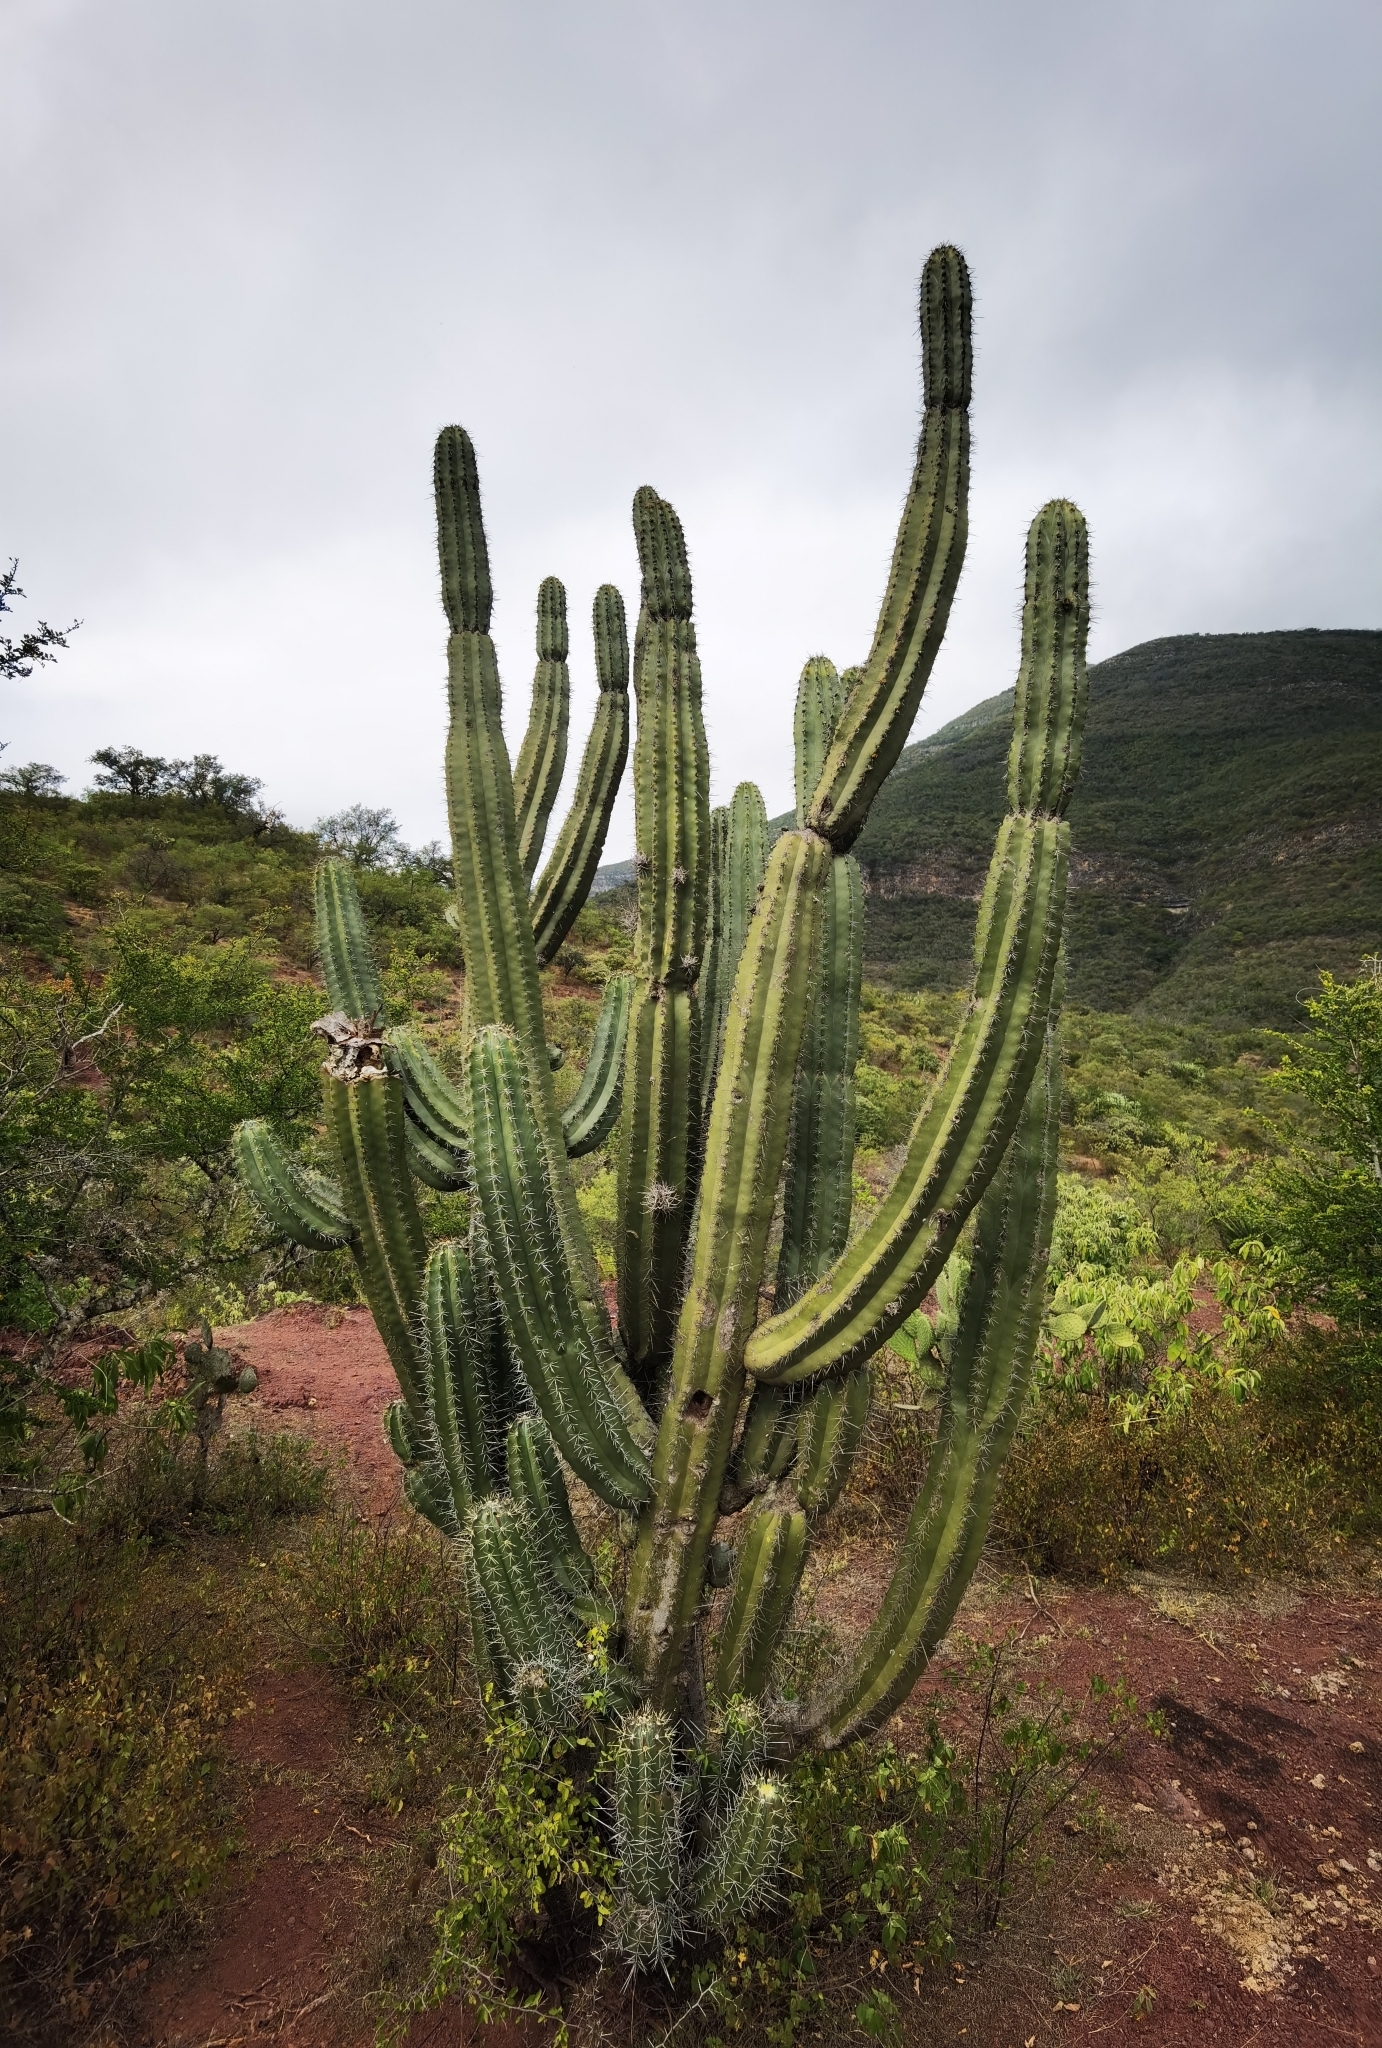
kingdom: Plantae
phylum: Tracheophyta
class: Magnoliopsida
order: Caryophyllales
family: Cactaceae
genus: Stenocereus
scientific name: Stenocereus huastecorum
